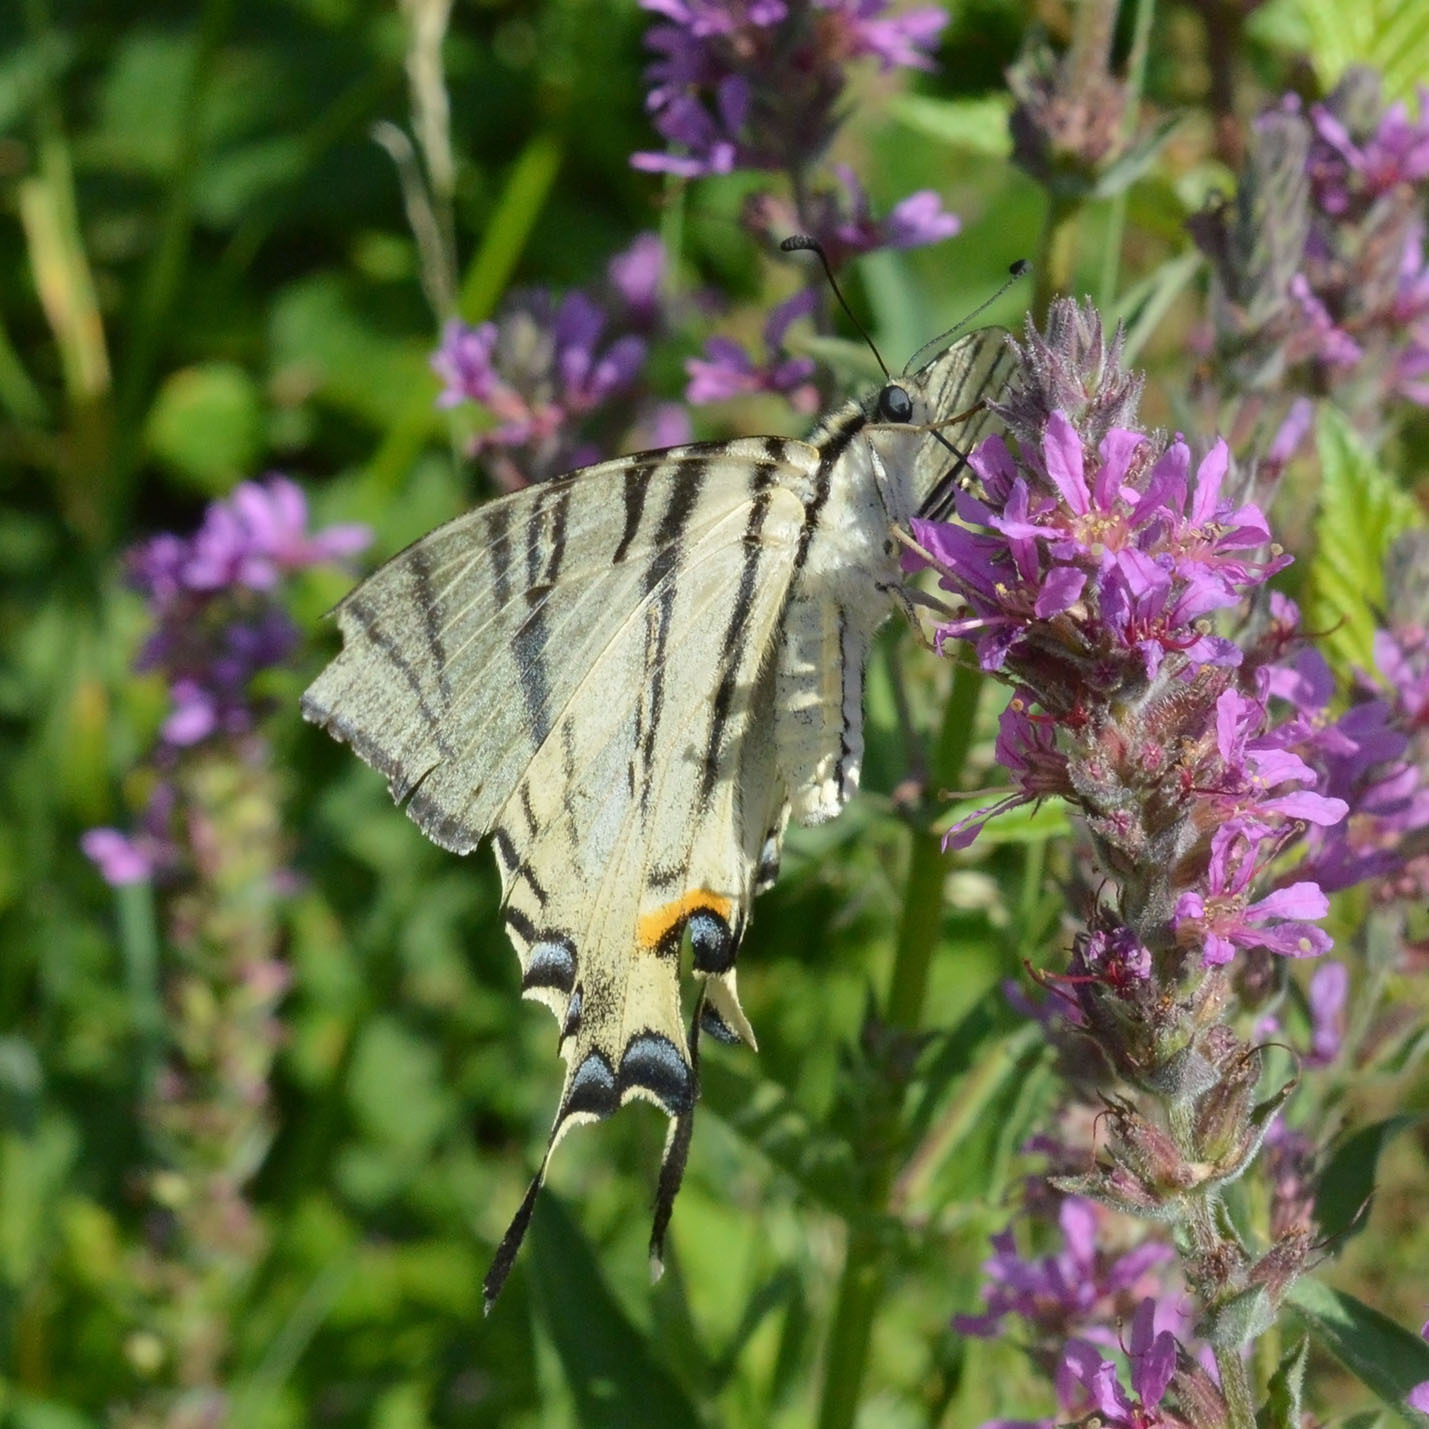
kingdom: Animalia
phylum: Arthropoda
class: Insecta
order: Lepidoptera
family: Papilionidae
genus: Iphiclides
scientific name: Iphiclides podalirius
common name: Scarce swallowtail
